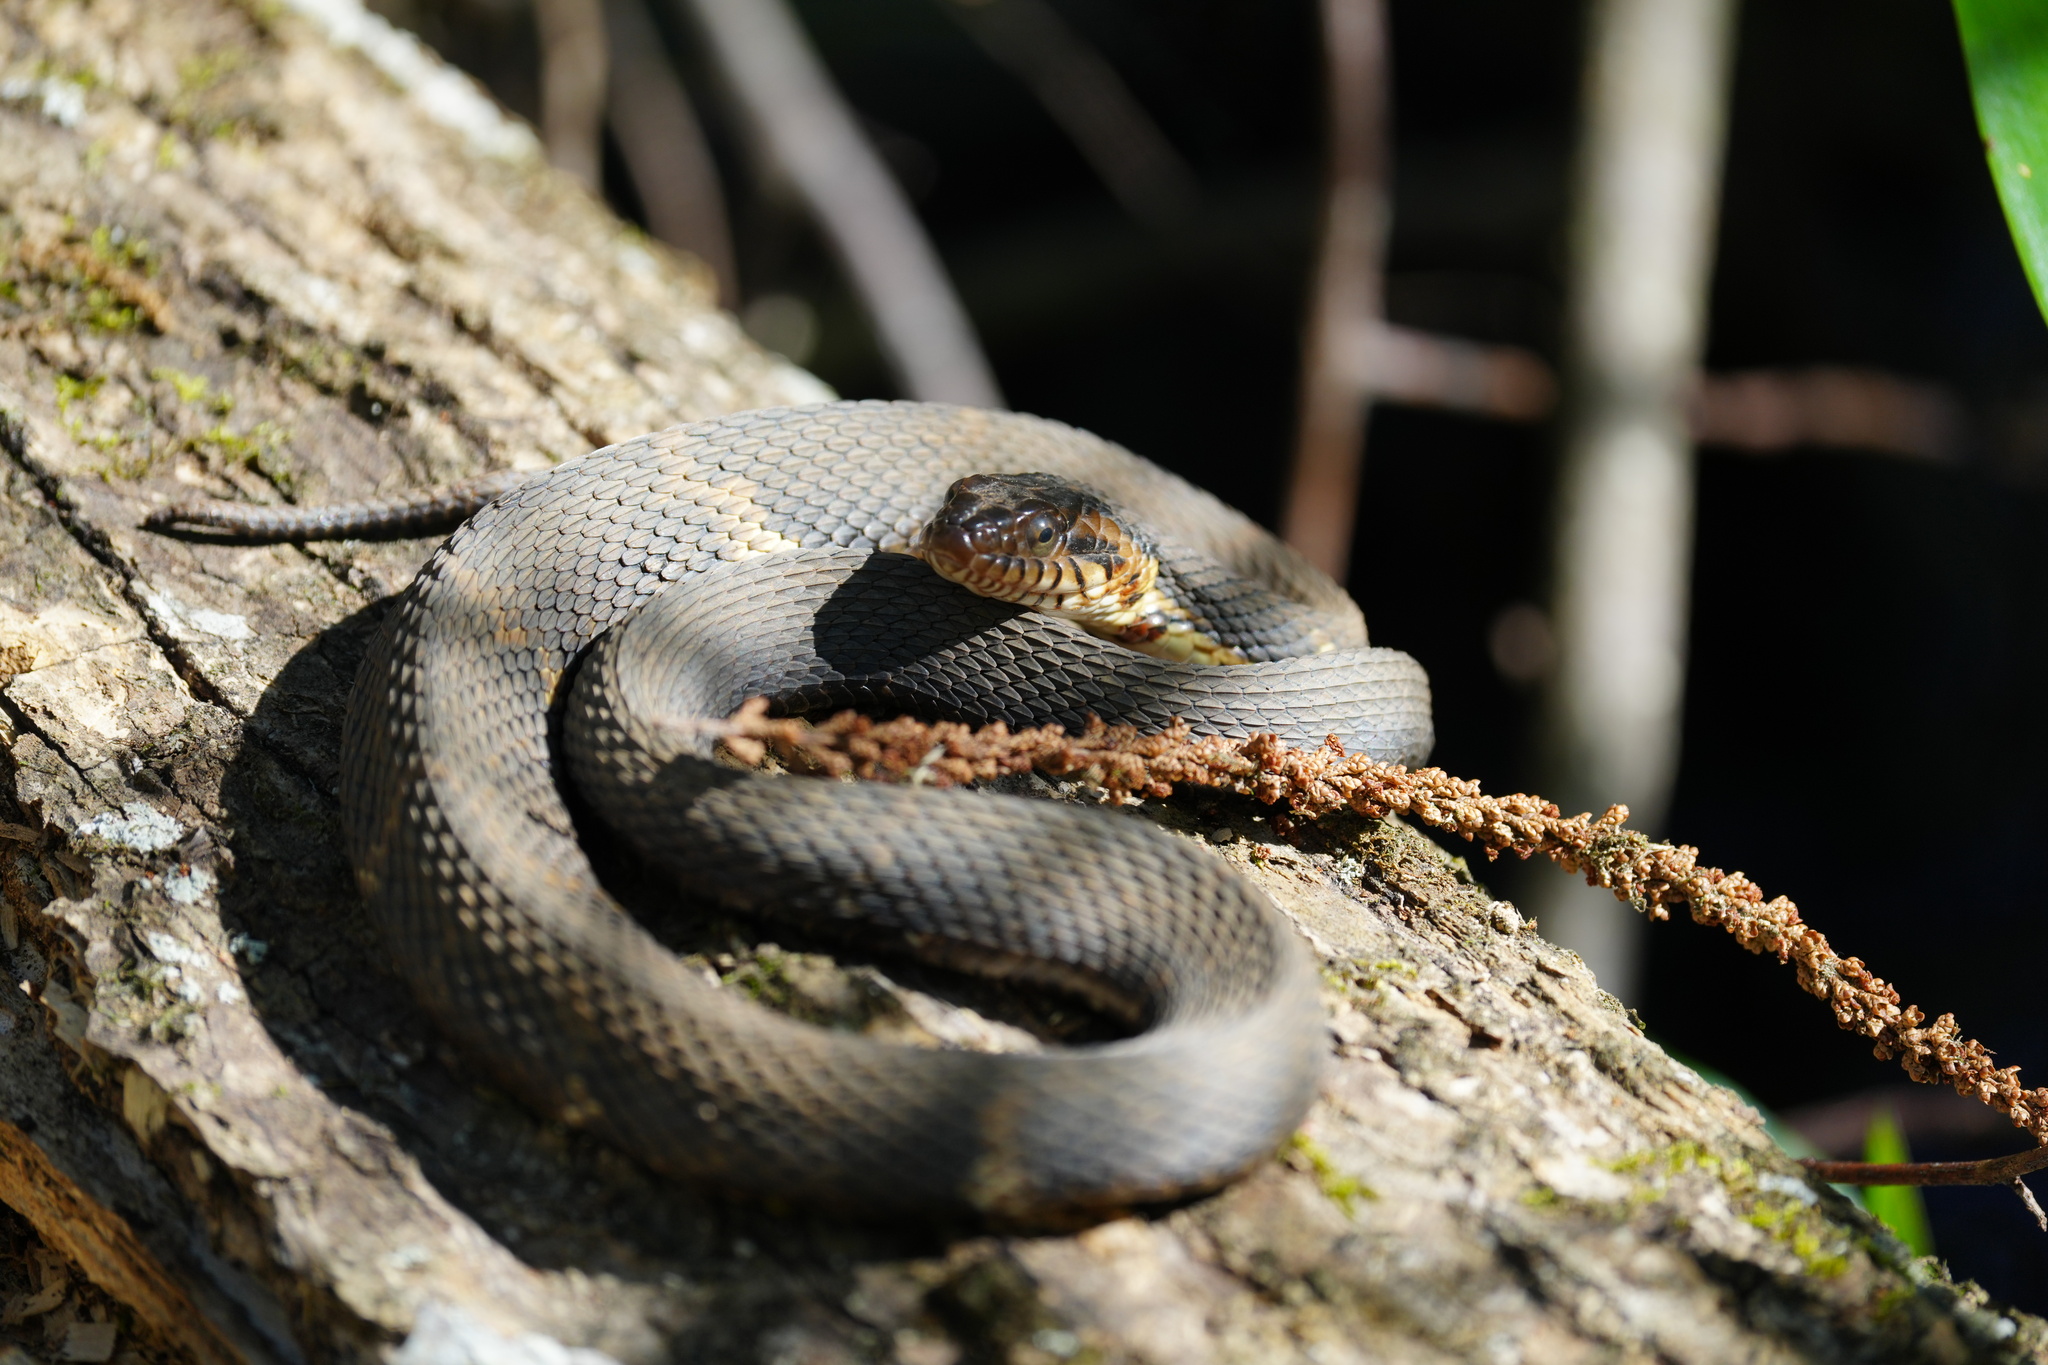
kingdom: Animalia
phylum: Chordata
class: Squamata
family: Colubridae
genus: Nerodia
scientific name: Nerodia fasciata
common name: Southern water snake
